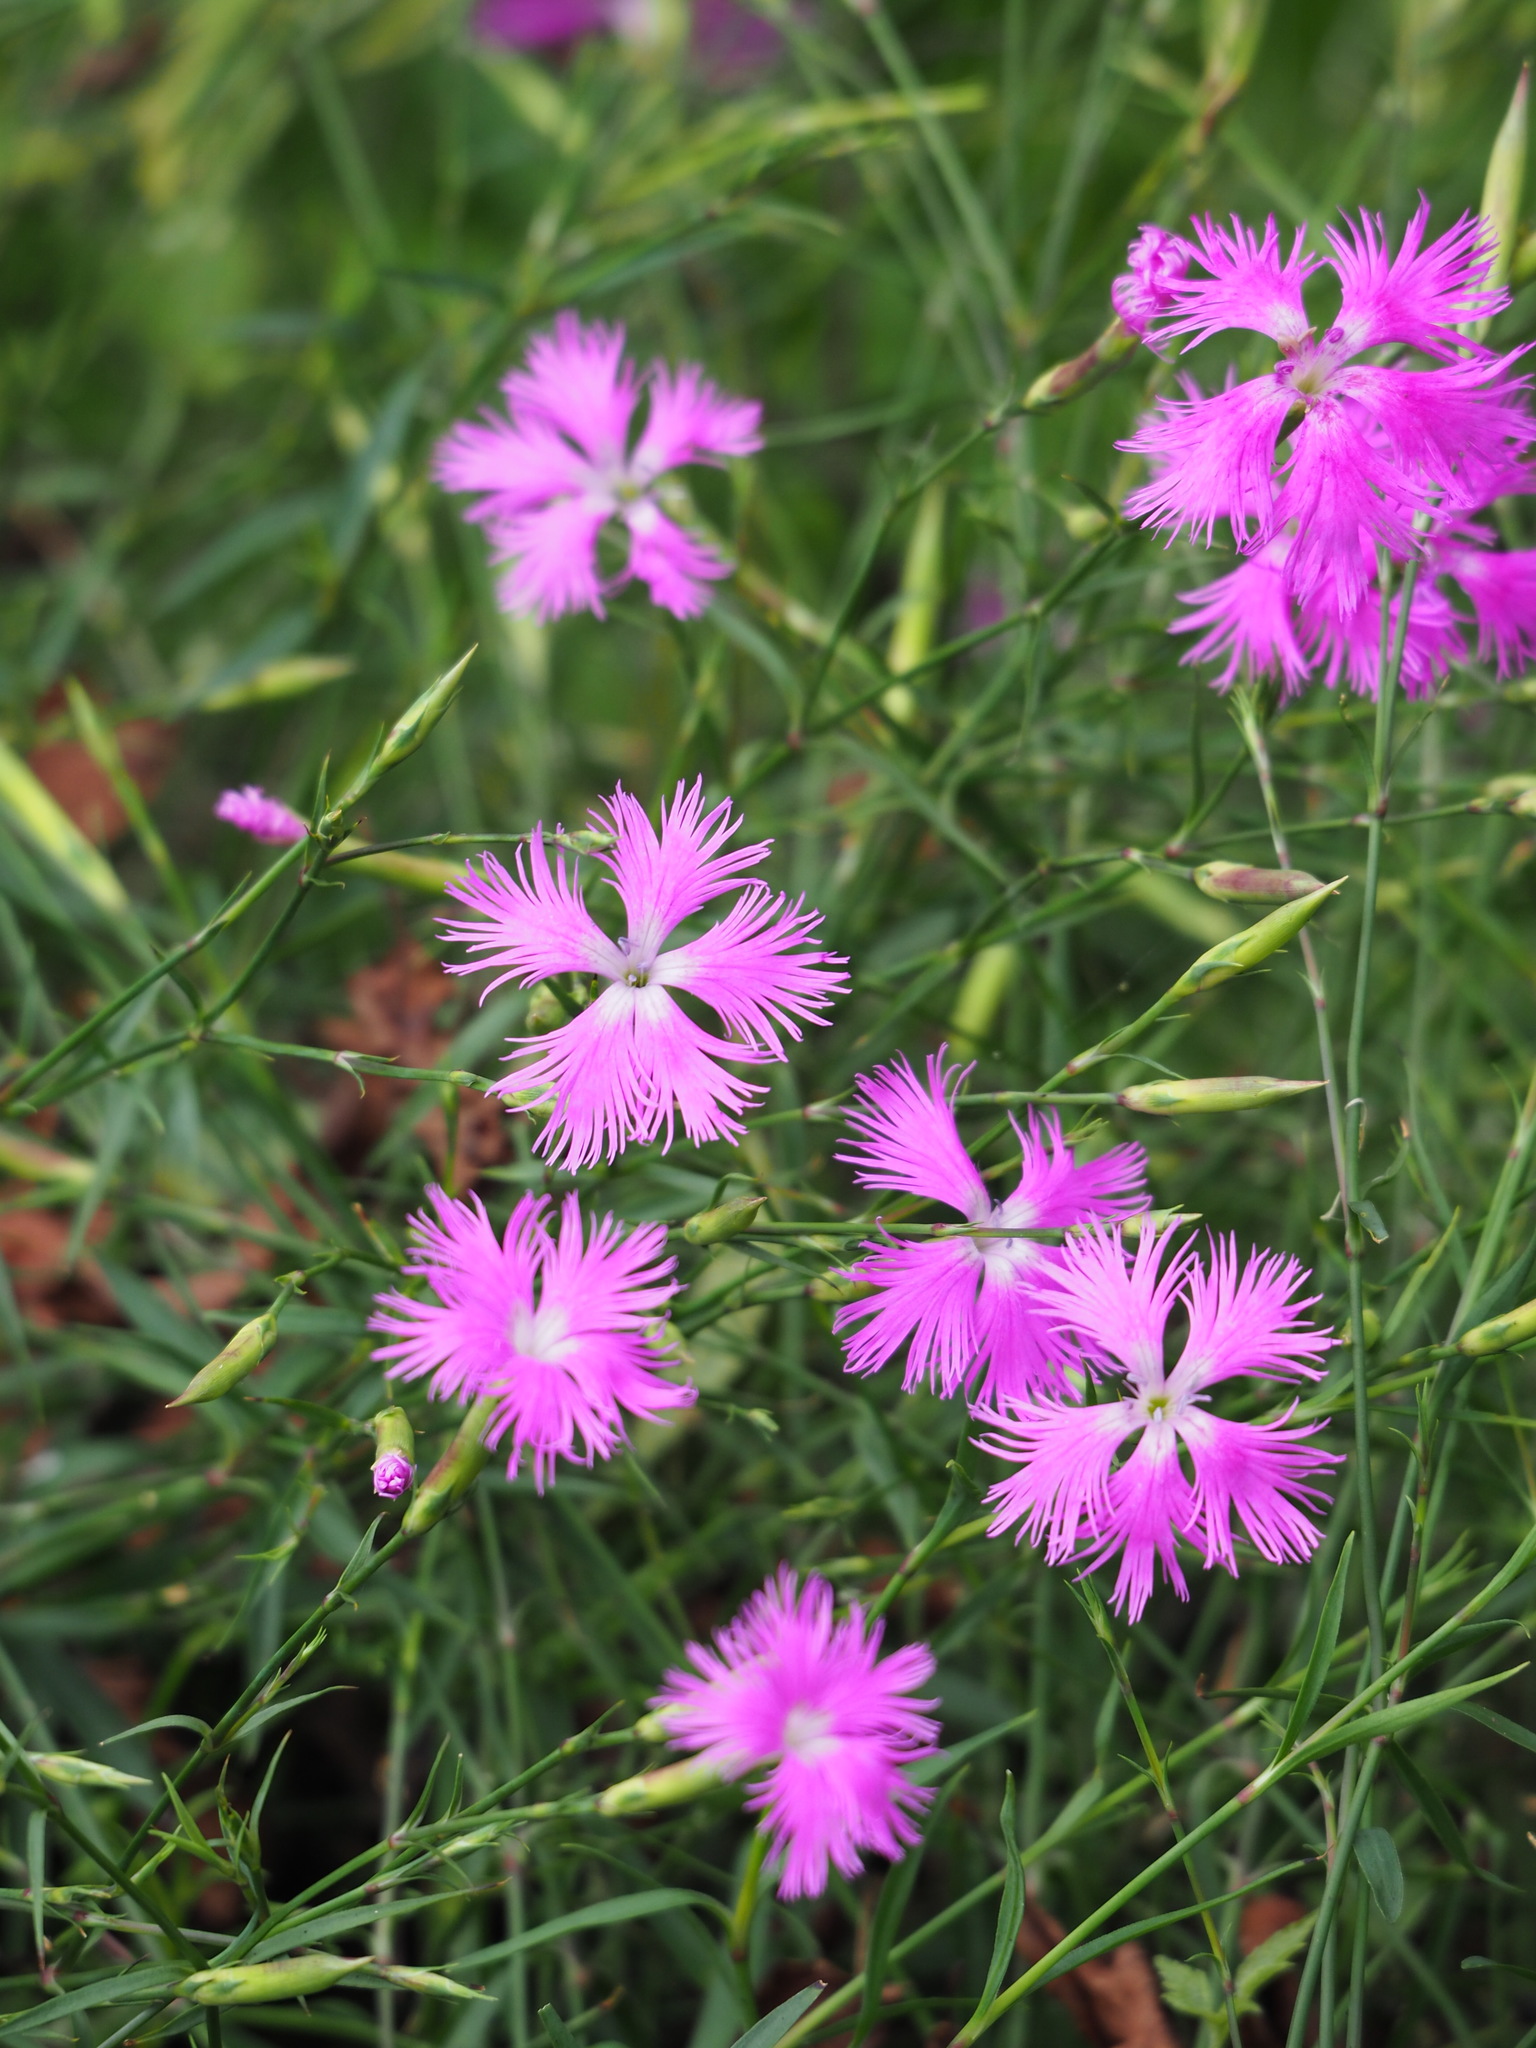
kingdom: Plantae
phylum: Tracheophyta
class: Magnoliopsida
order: Caryophyllales
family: Caryophyllaceae
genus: Dianthus
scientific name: Dianthus longicalyx
